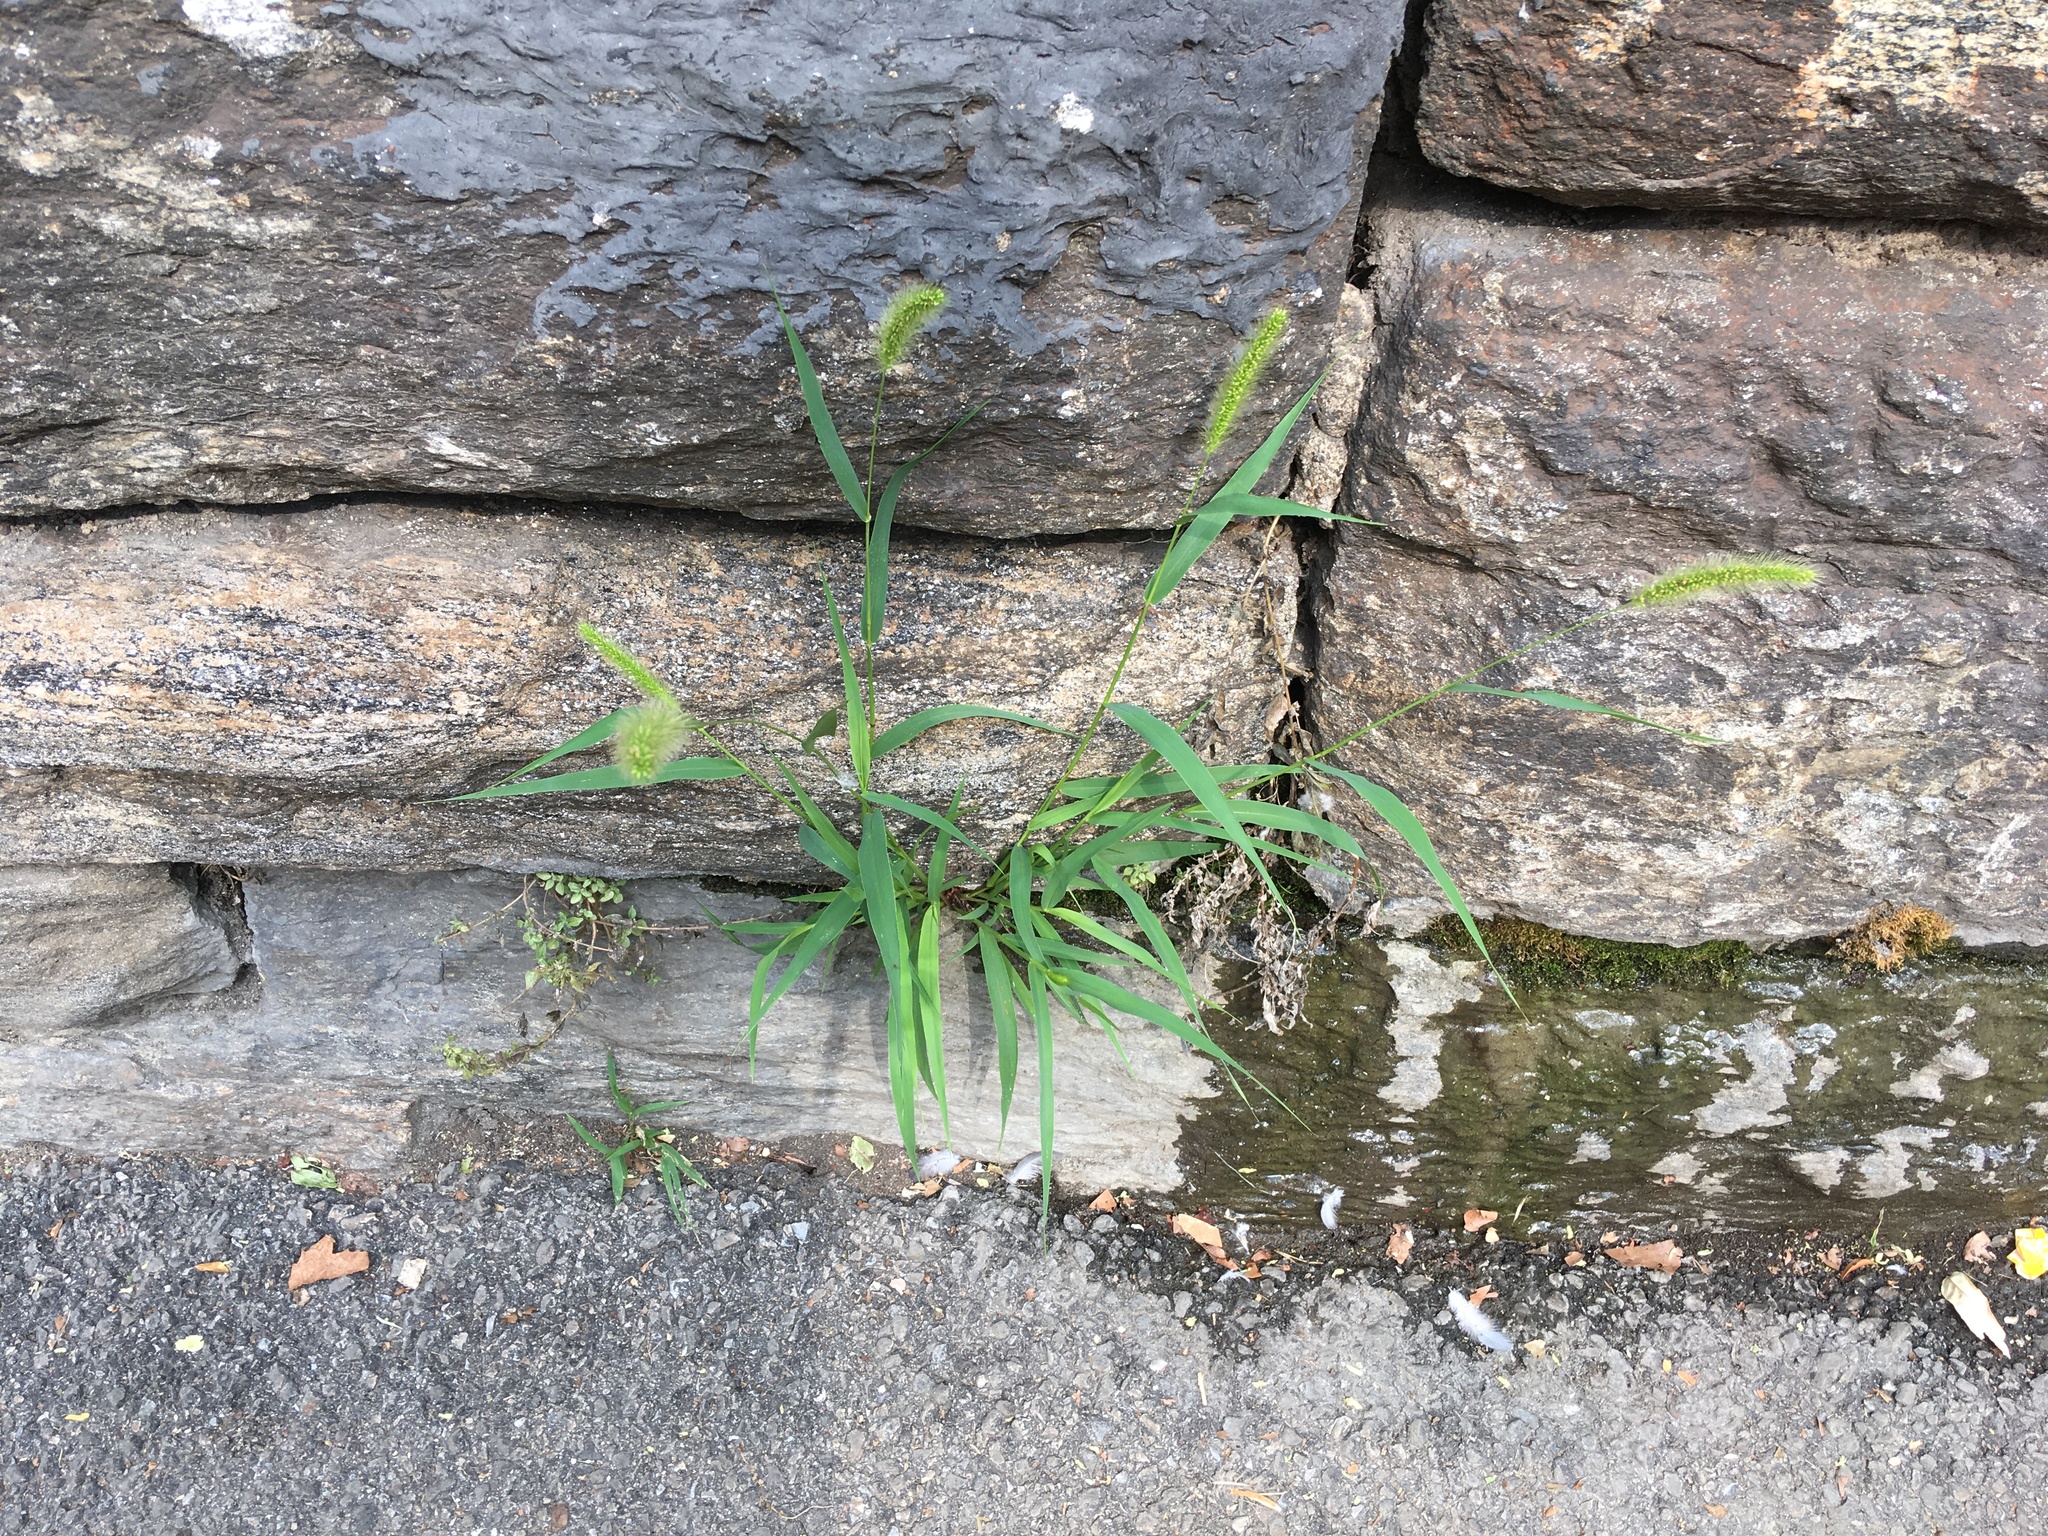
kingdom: Plantae
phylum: Tracheophyta
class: Liliopsida
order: Poales
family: Poaceae
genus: Setaria
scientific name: Setaria viridis
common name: Green bristlegrass
